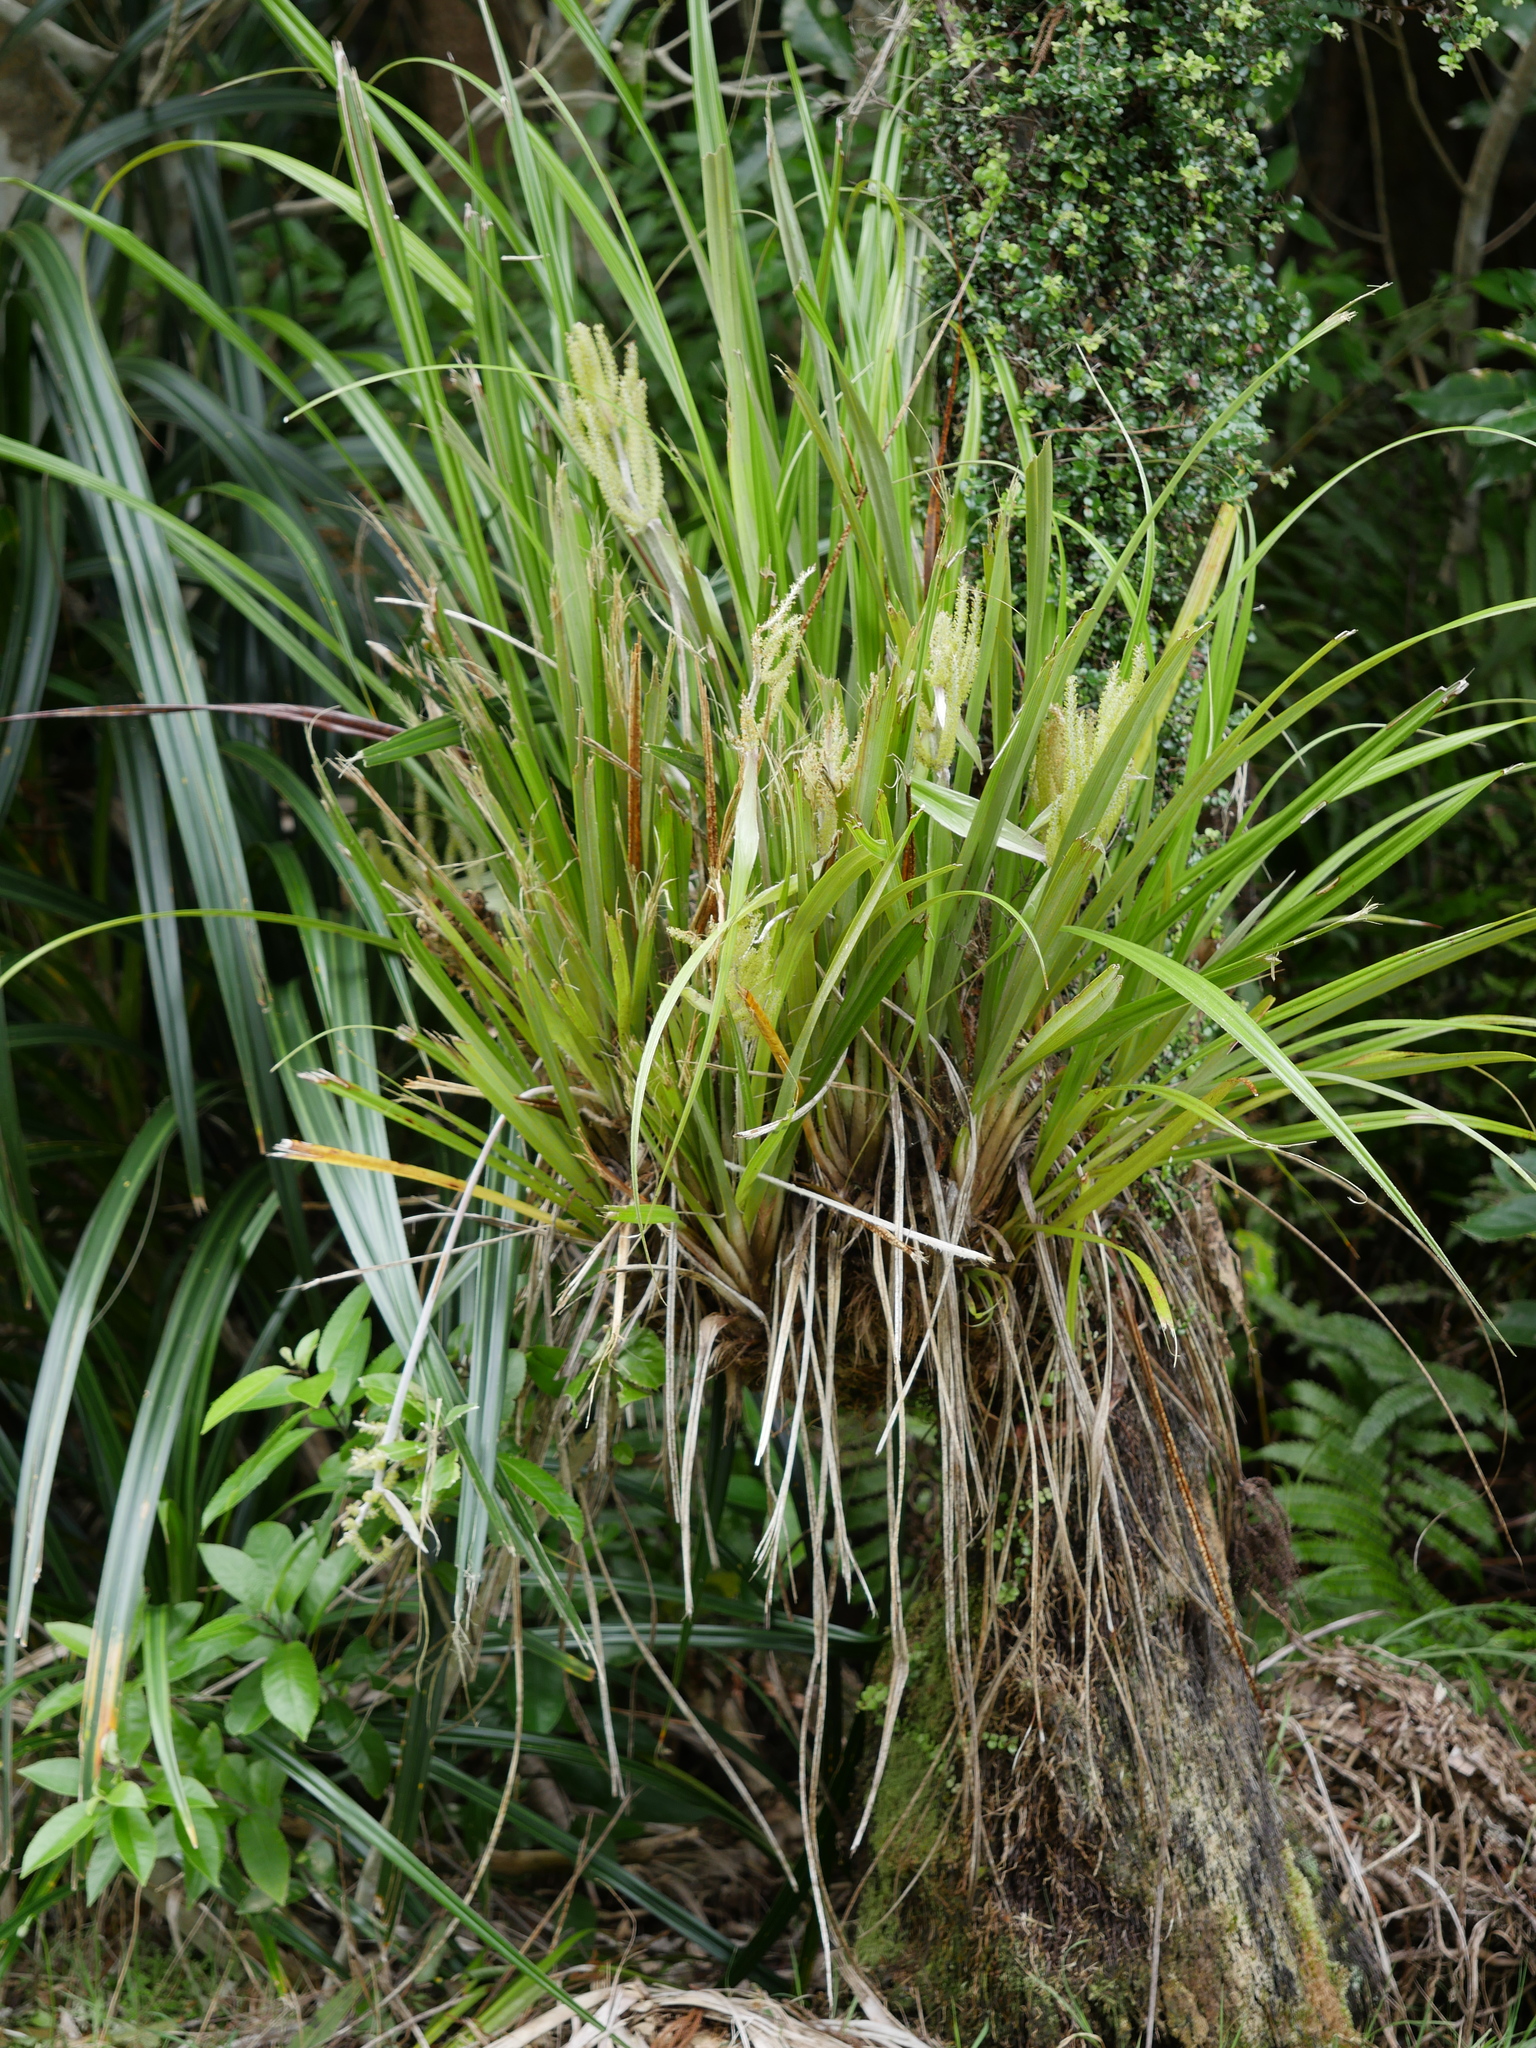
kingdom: Plantae
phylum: Tracheophyta
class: Liliopsida
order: Asparagales
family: Asteliaceae
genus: Astelia
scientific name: Astelia solandri
